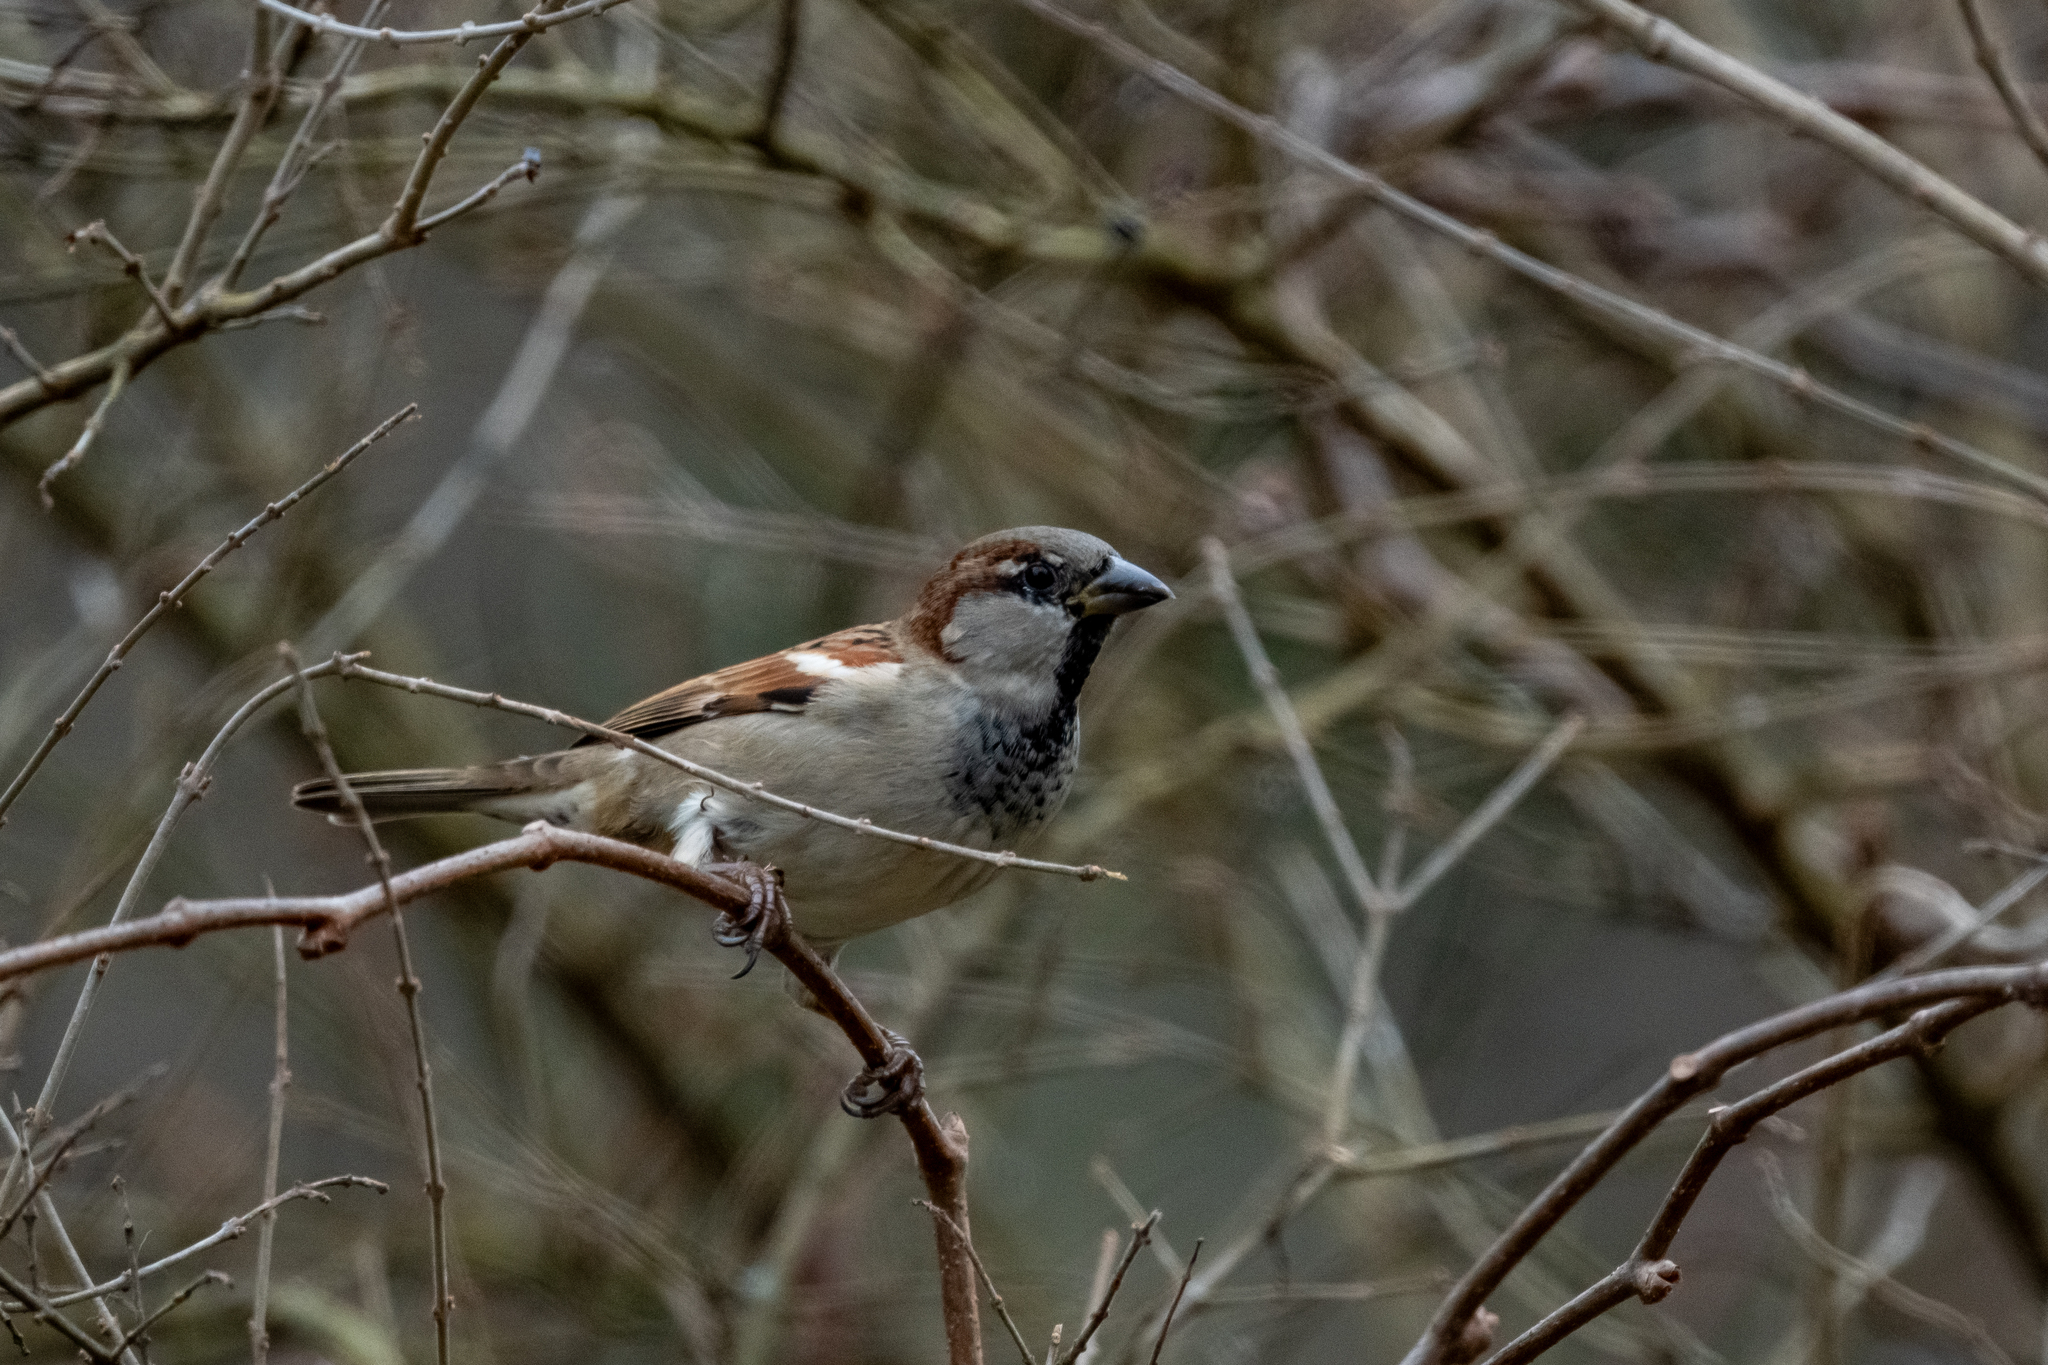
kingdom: Animalia
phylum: Chordata
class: Aves
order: Passeriformes
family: Passeridae
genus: Passer
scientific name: Passer domesticus
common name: House sparrow
